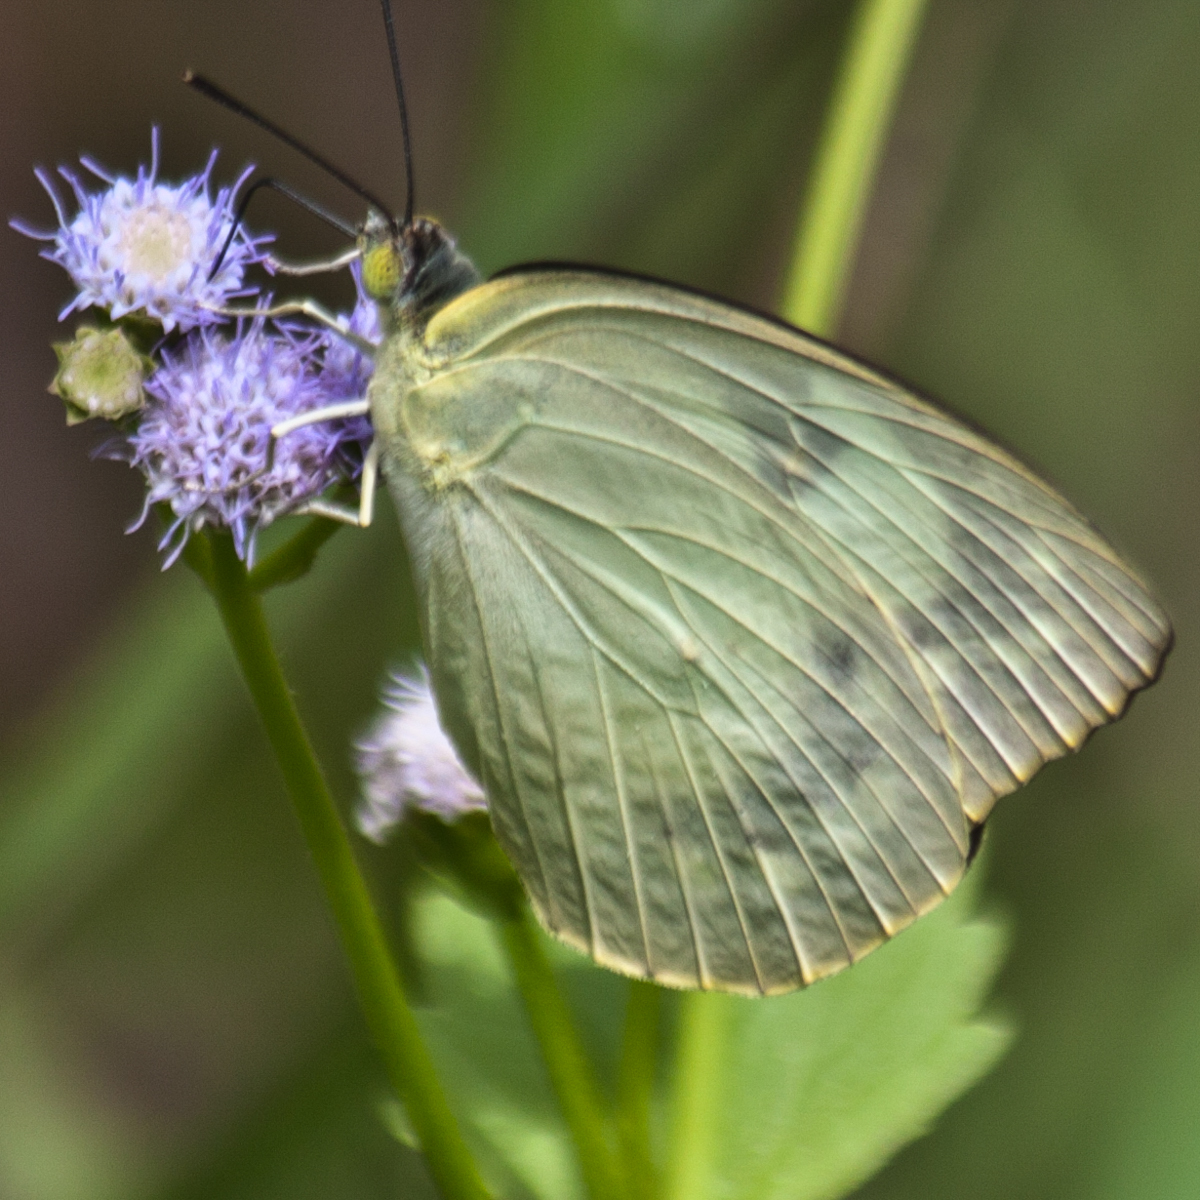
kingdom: Animalia
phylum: Arthropoda
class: Insecta
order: Lepidoptera
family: Pieridae
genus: Catopsilia
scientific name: Catopsilia pomona
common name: Common emigrant
